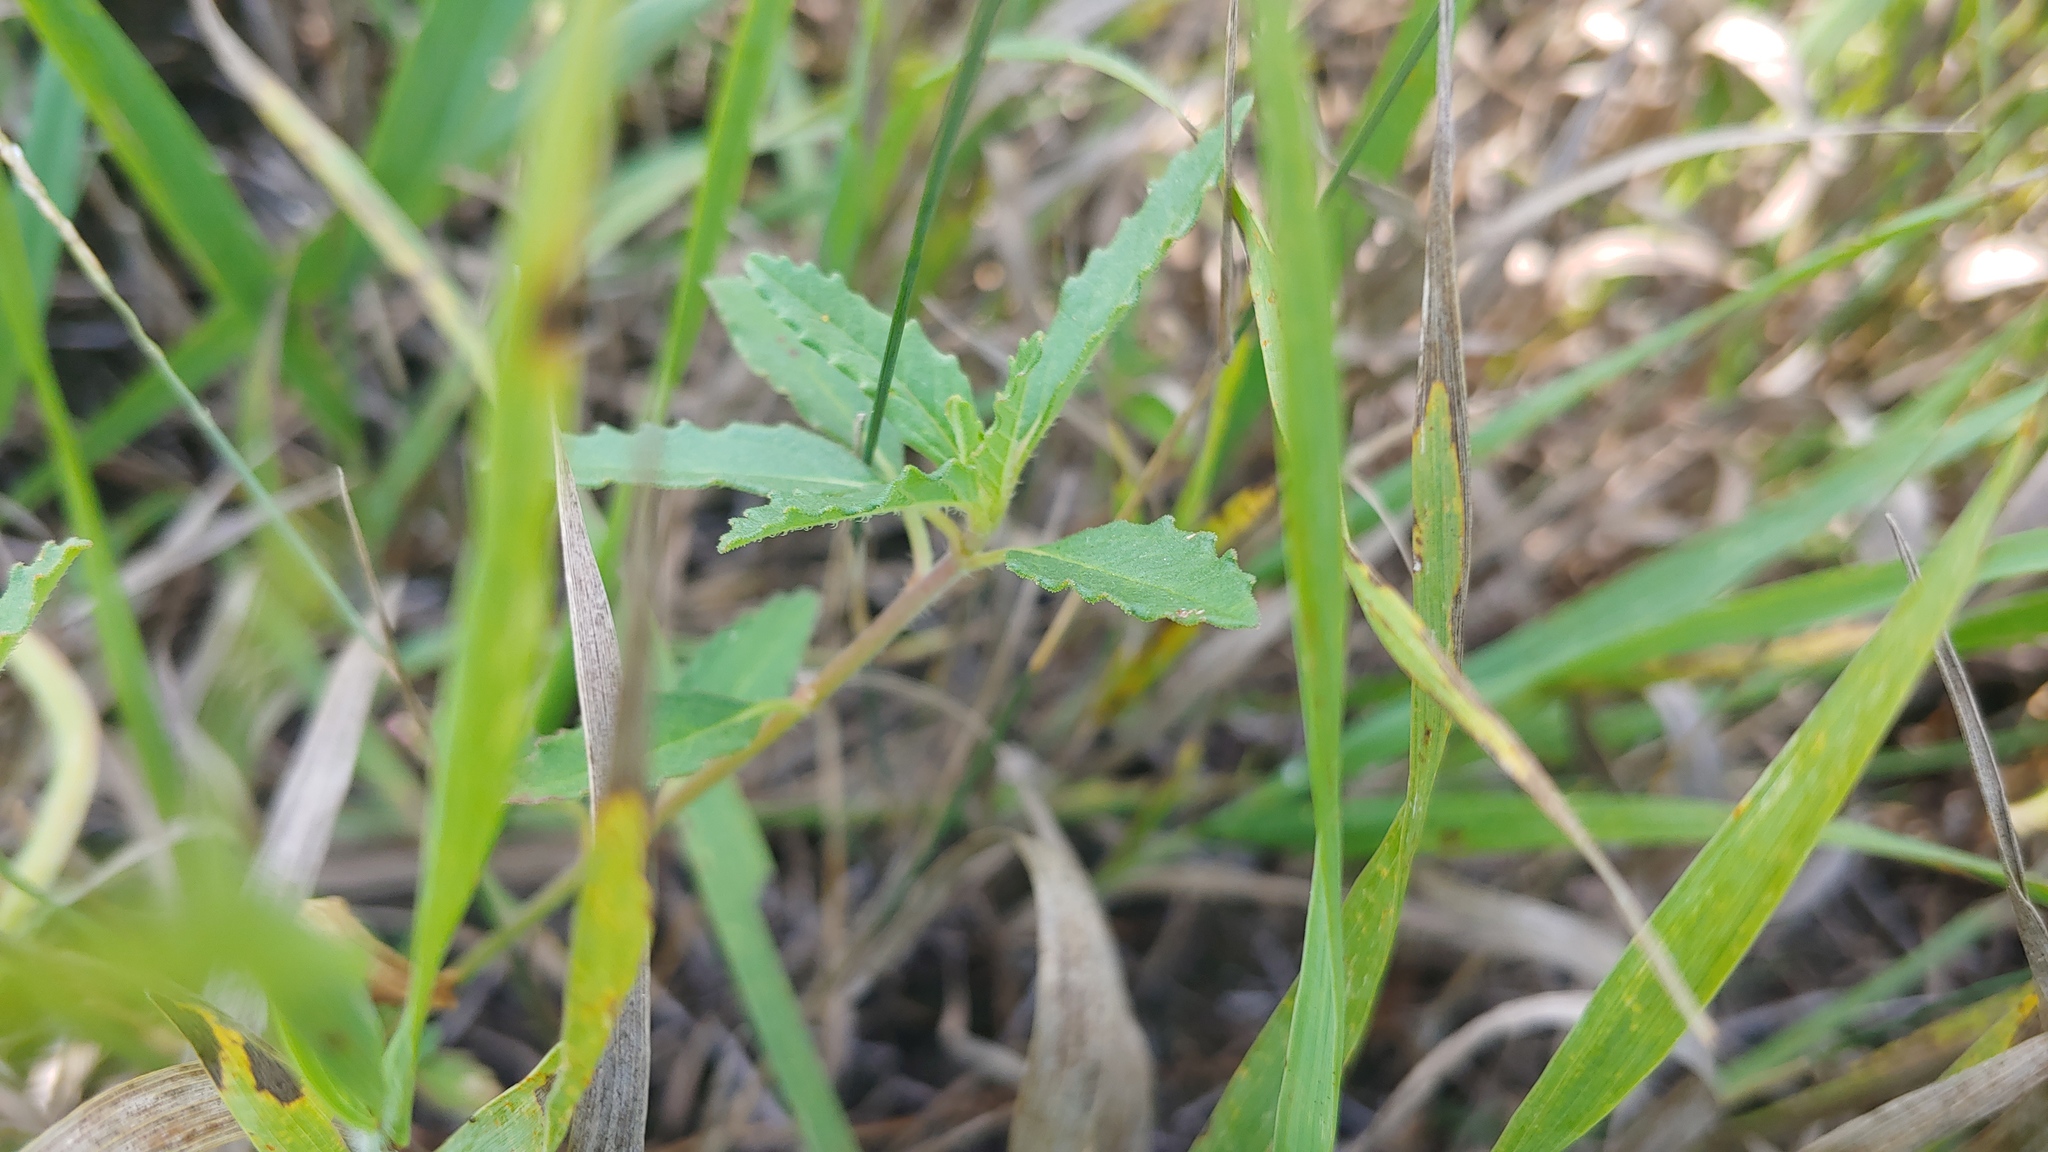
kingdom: Plantae
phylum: Tracheophyta
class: Magnoliopsida
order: Malpighiales
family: Euphorbiaceae
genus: Euphorbia
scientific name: Euphorbia davidii
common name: David's spurge
